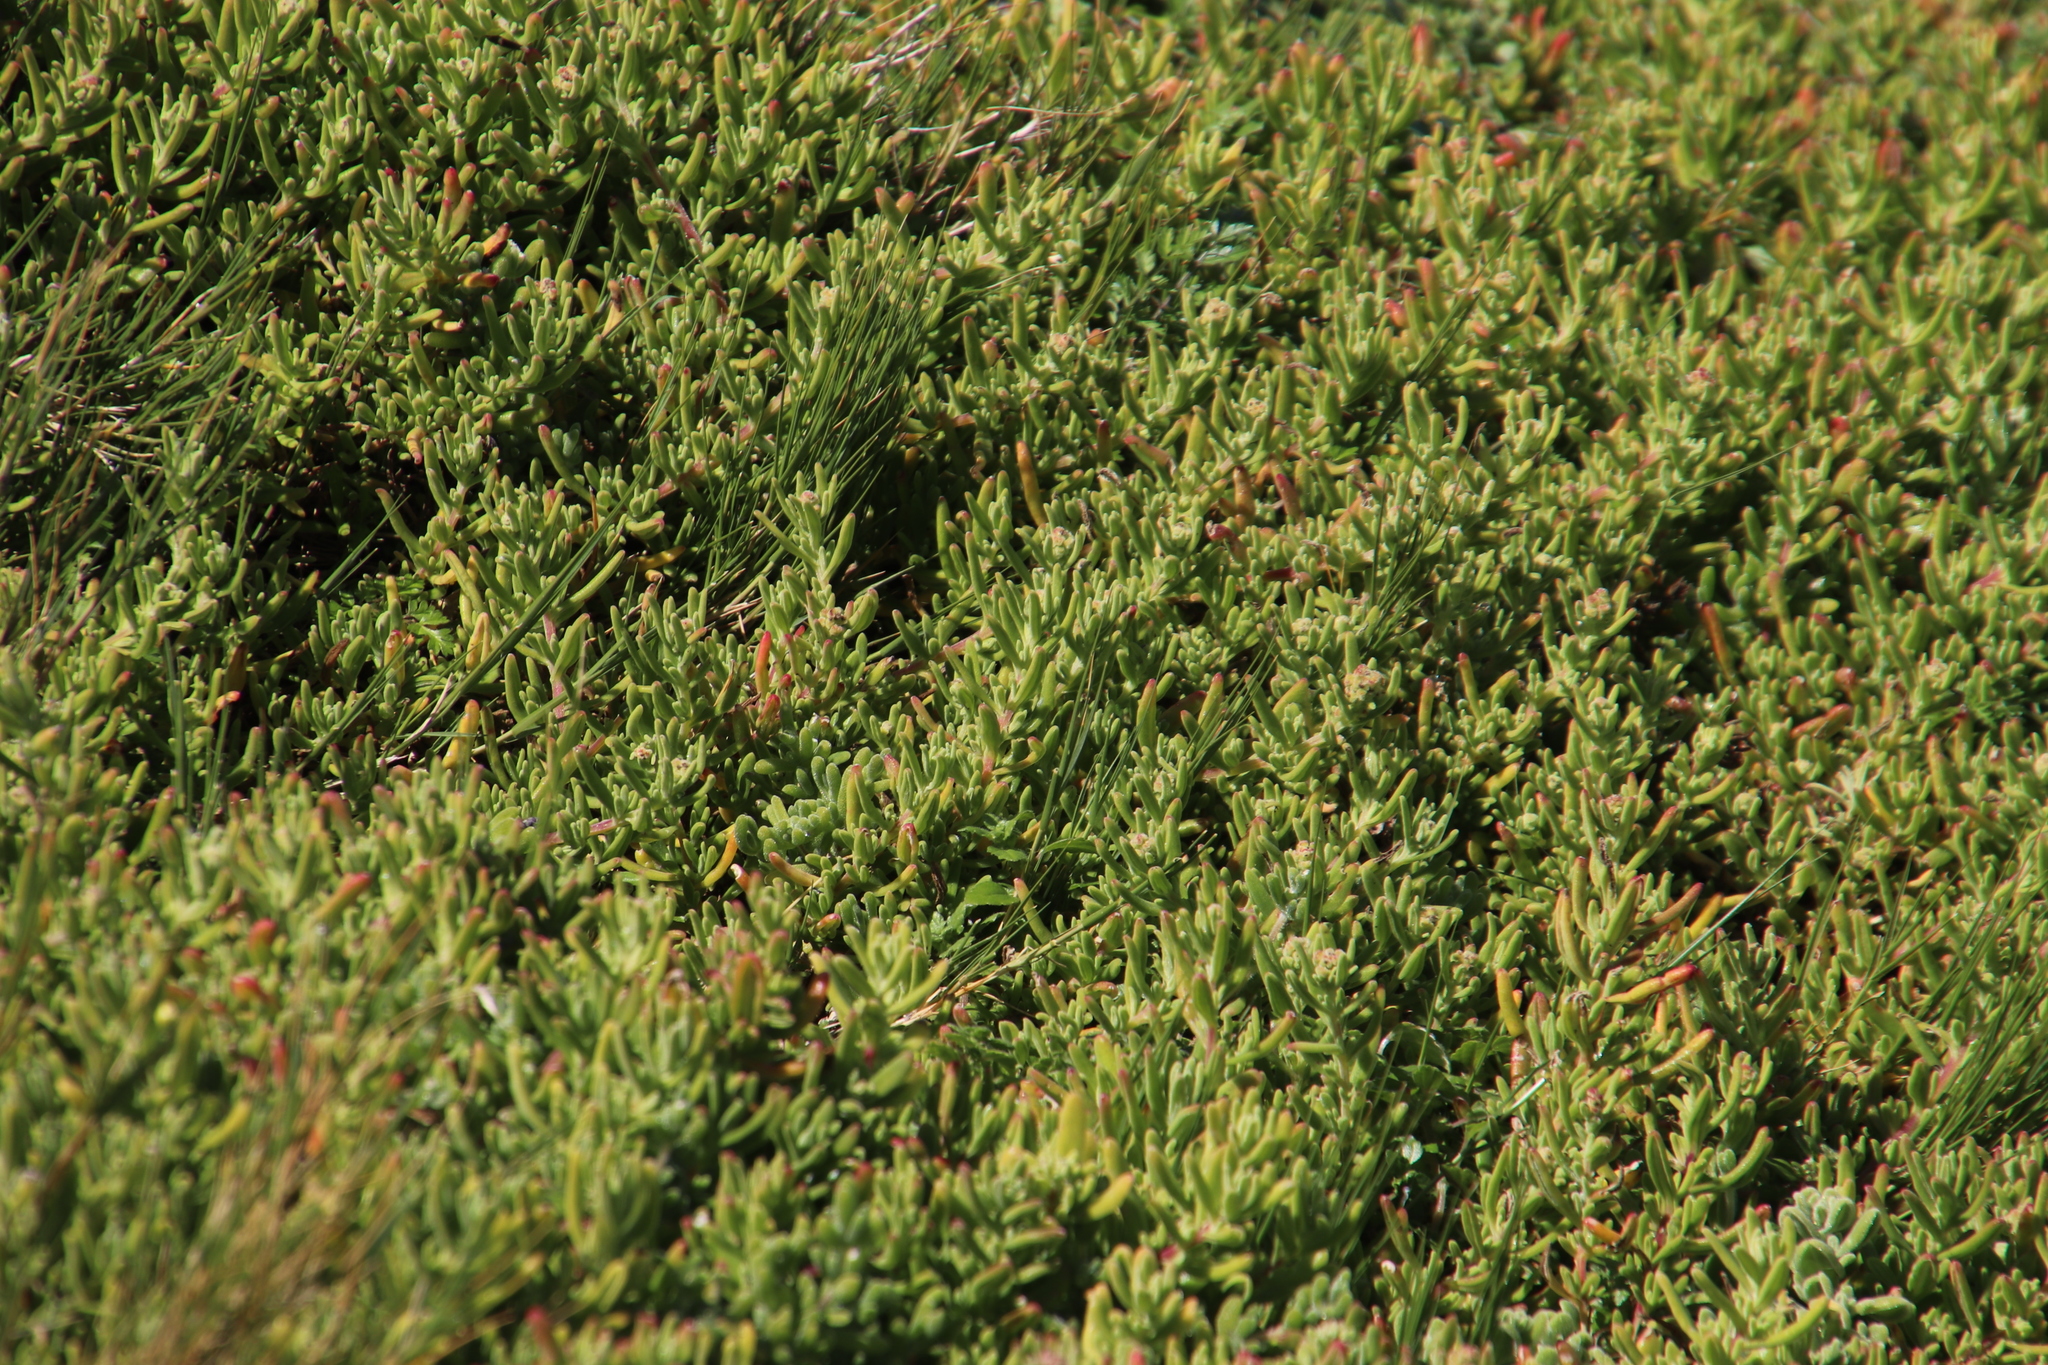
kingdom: Plantae
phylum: Tracheophyta
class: Magnoliopsida
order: Caryophyllales
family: Aizoaceae
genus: Tetragonia
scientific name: Tetragonia fruticosa
